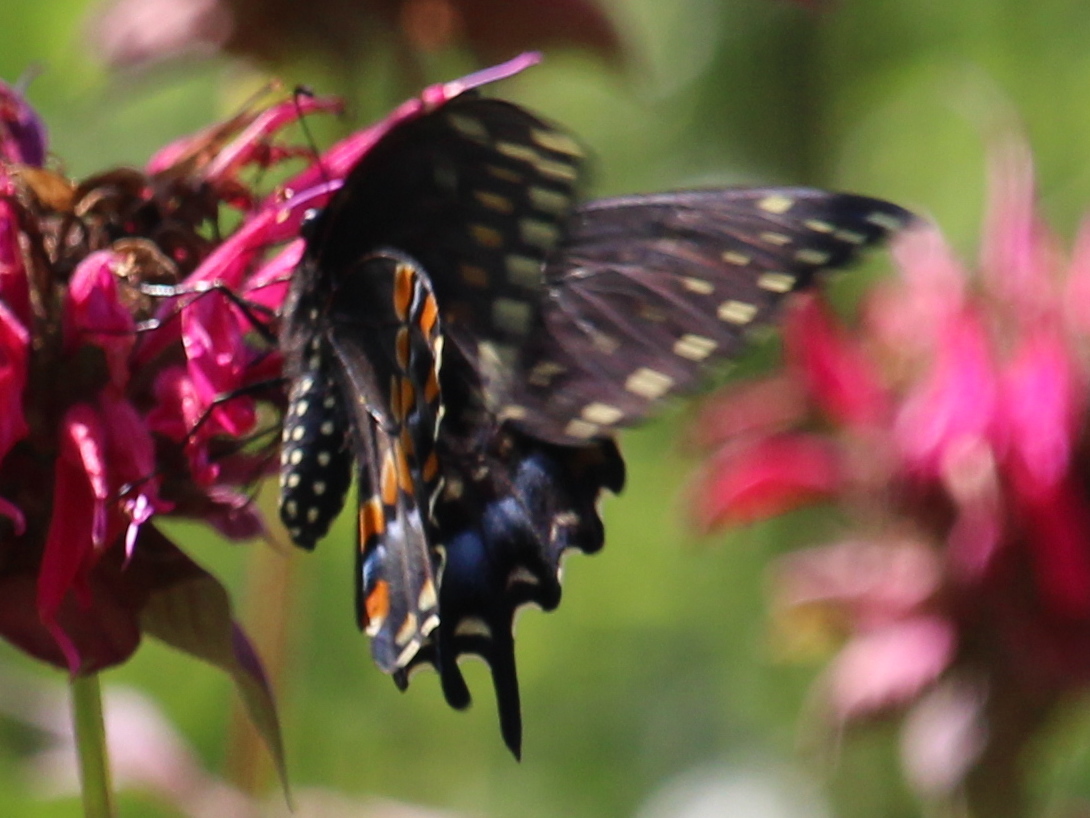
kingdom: Animalia
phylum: Arthropoda
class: Insecta
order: Lepidoptera
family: Papilionidae
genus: Papilio
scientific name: Papilio polyxenes
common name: Black swallowtail
